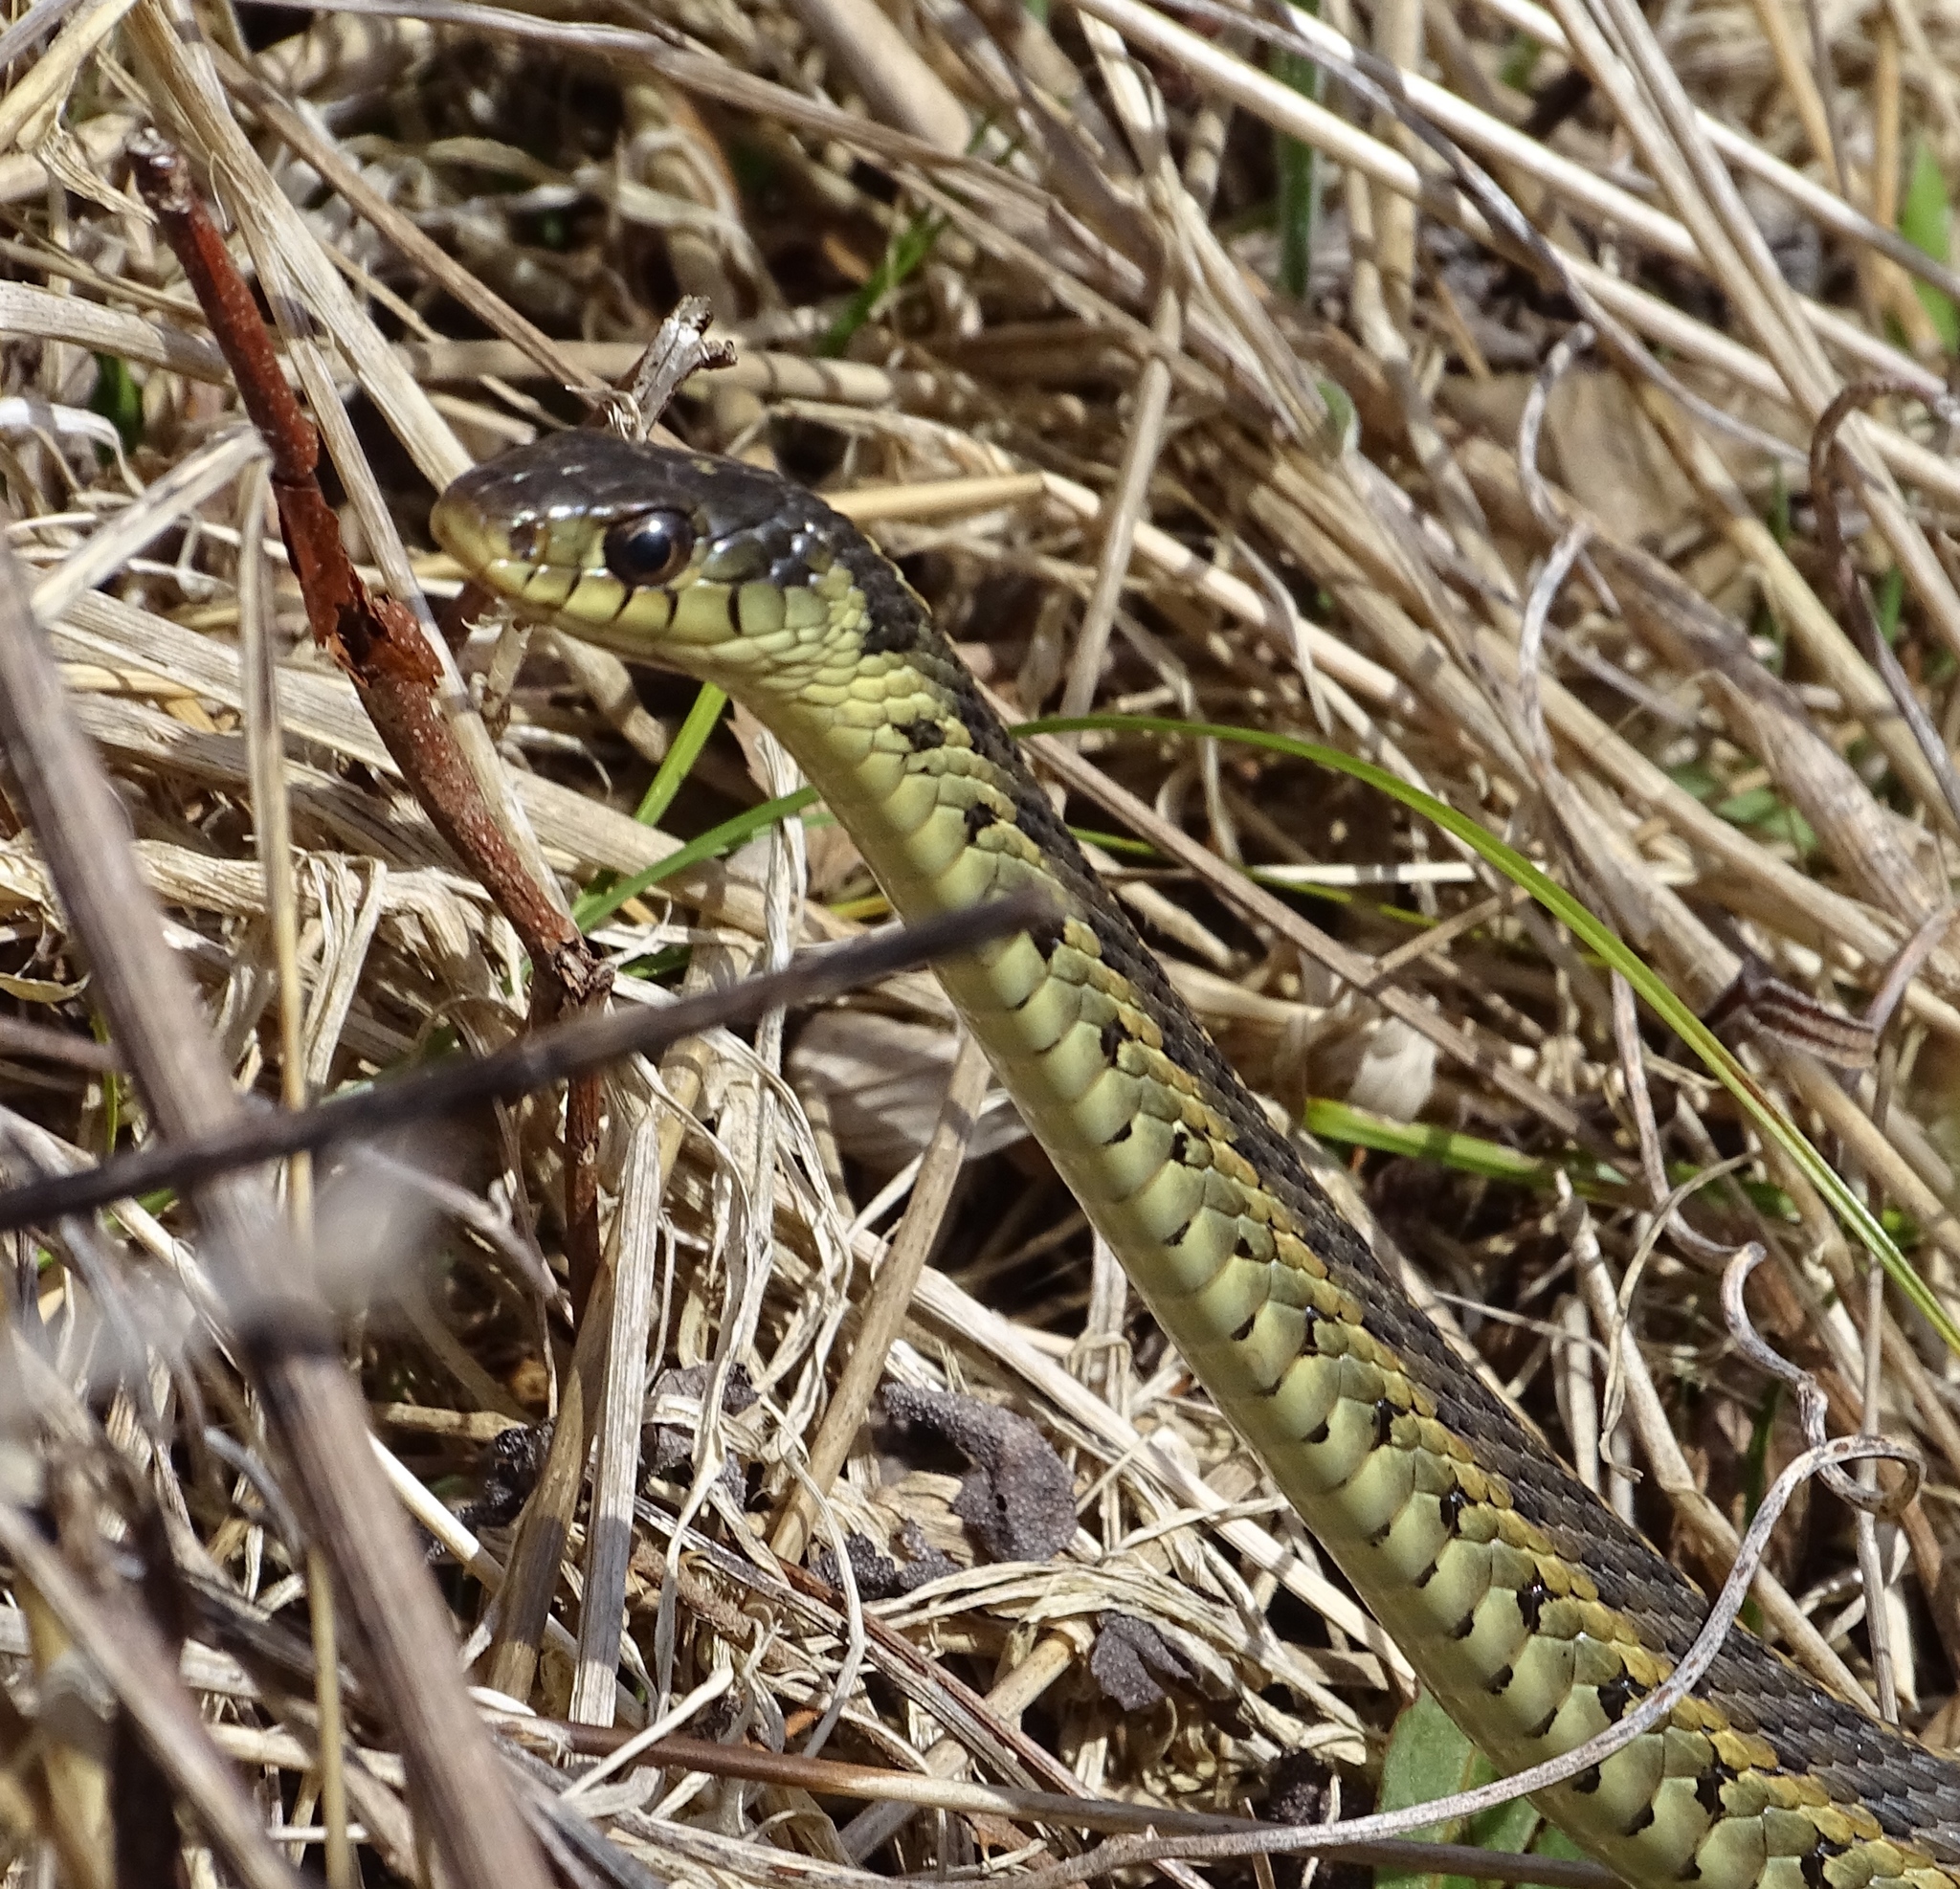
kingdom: Animalia
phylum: Chordata
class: Squamata
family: Colubridae
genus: Thamnophis
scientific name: Thamnophis sirtalis
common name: Common garter snake
